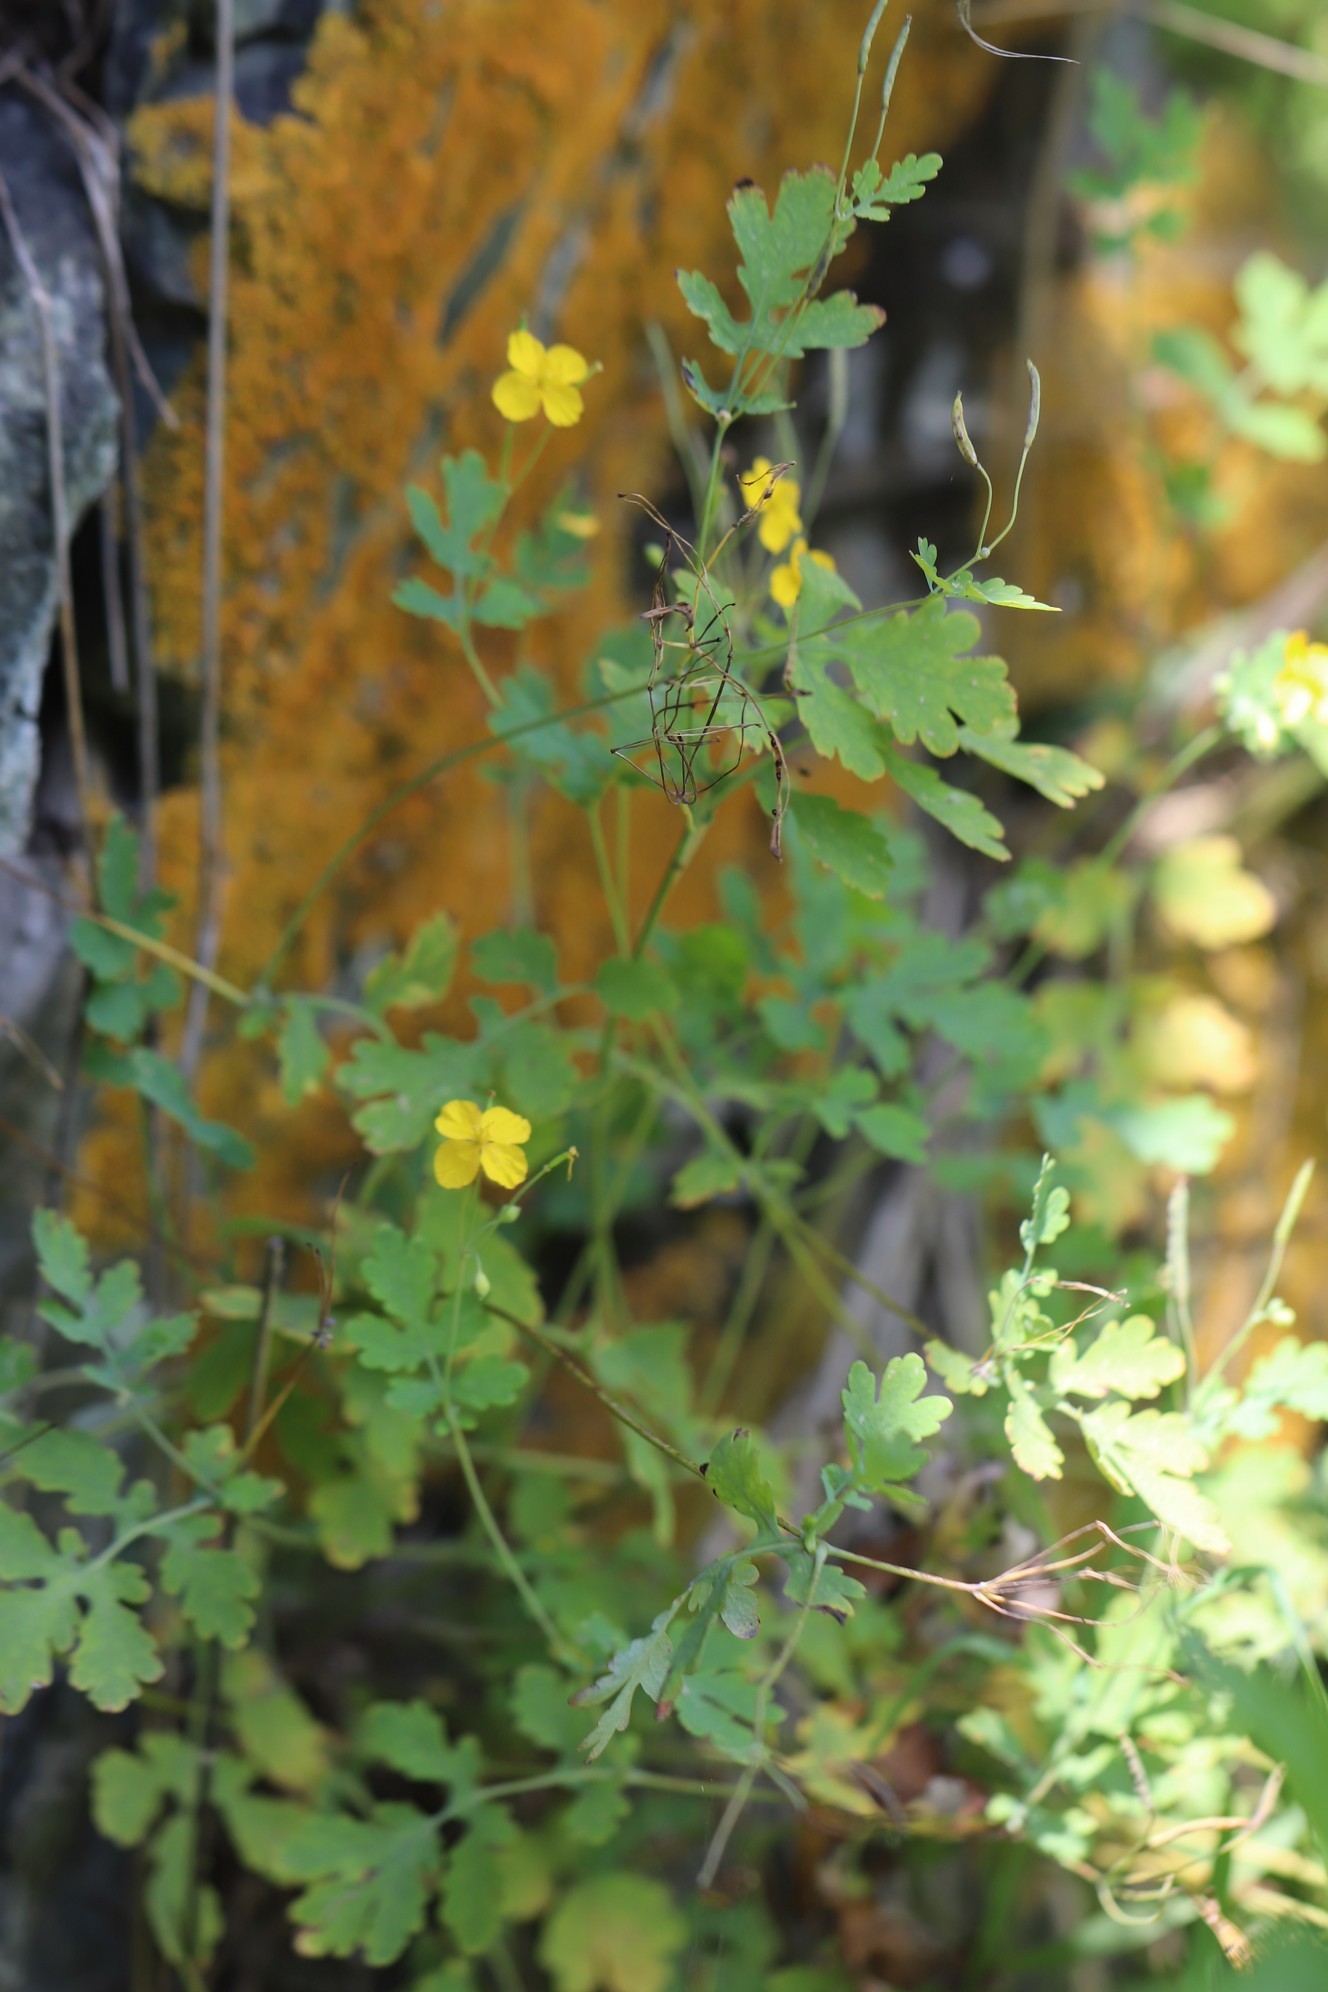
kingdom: Plantae
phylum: Tracheophyta
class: Magnoliopsida
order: Ranunculales
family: Papaveraceae
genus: Chelidonium
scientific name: Chelidonium majus
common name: Greater celandine
